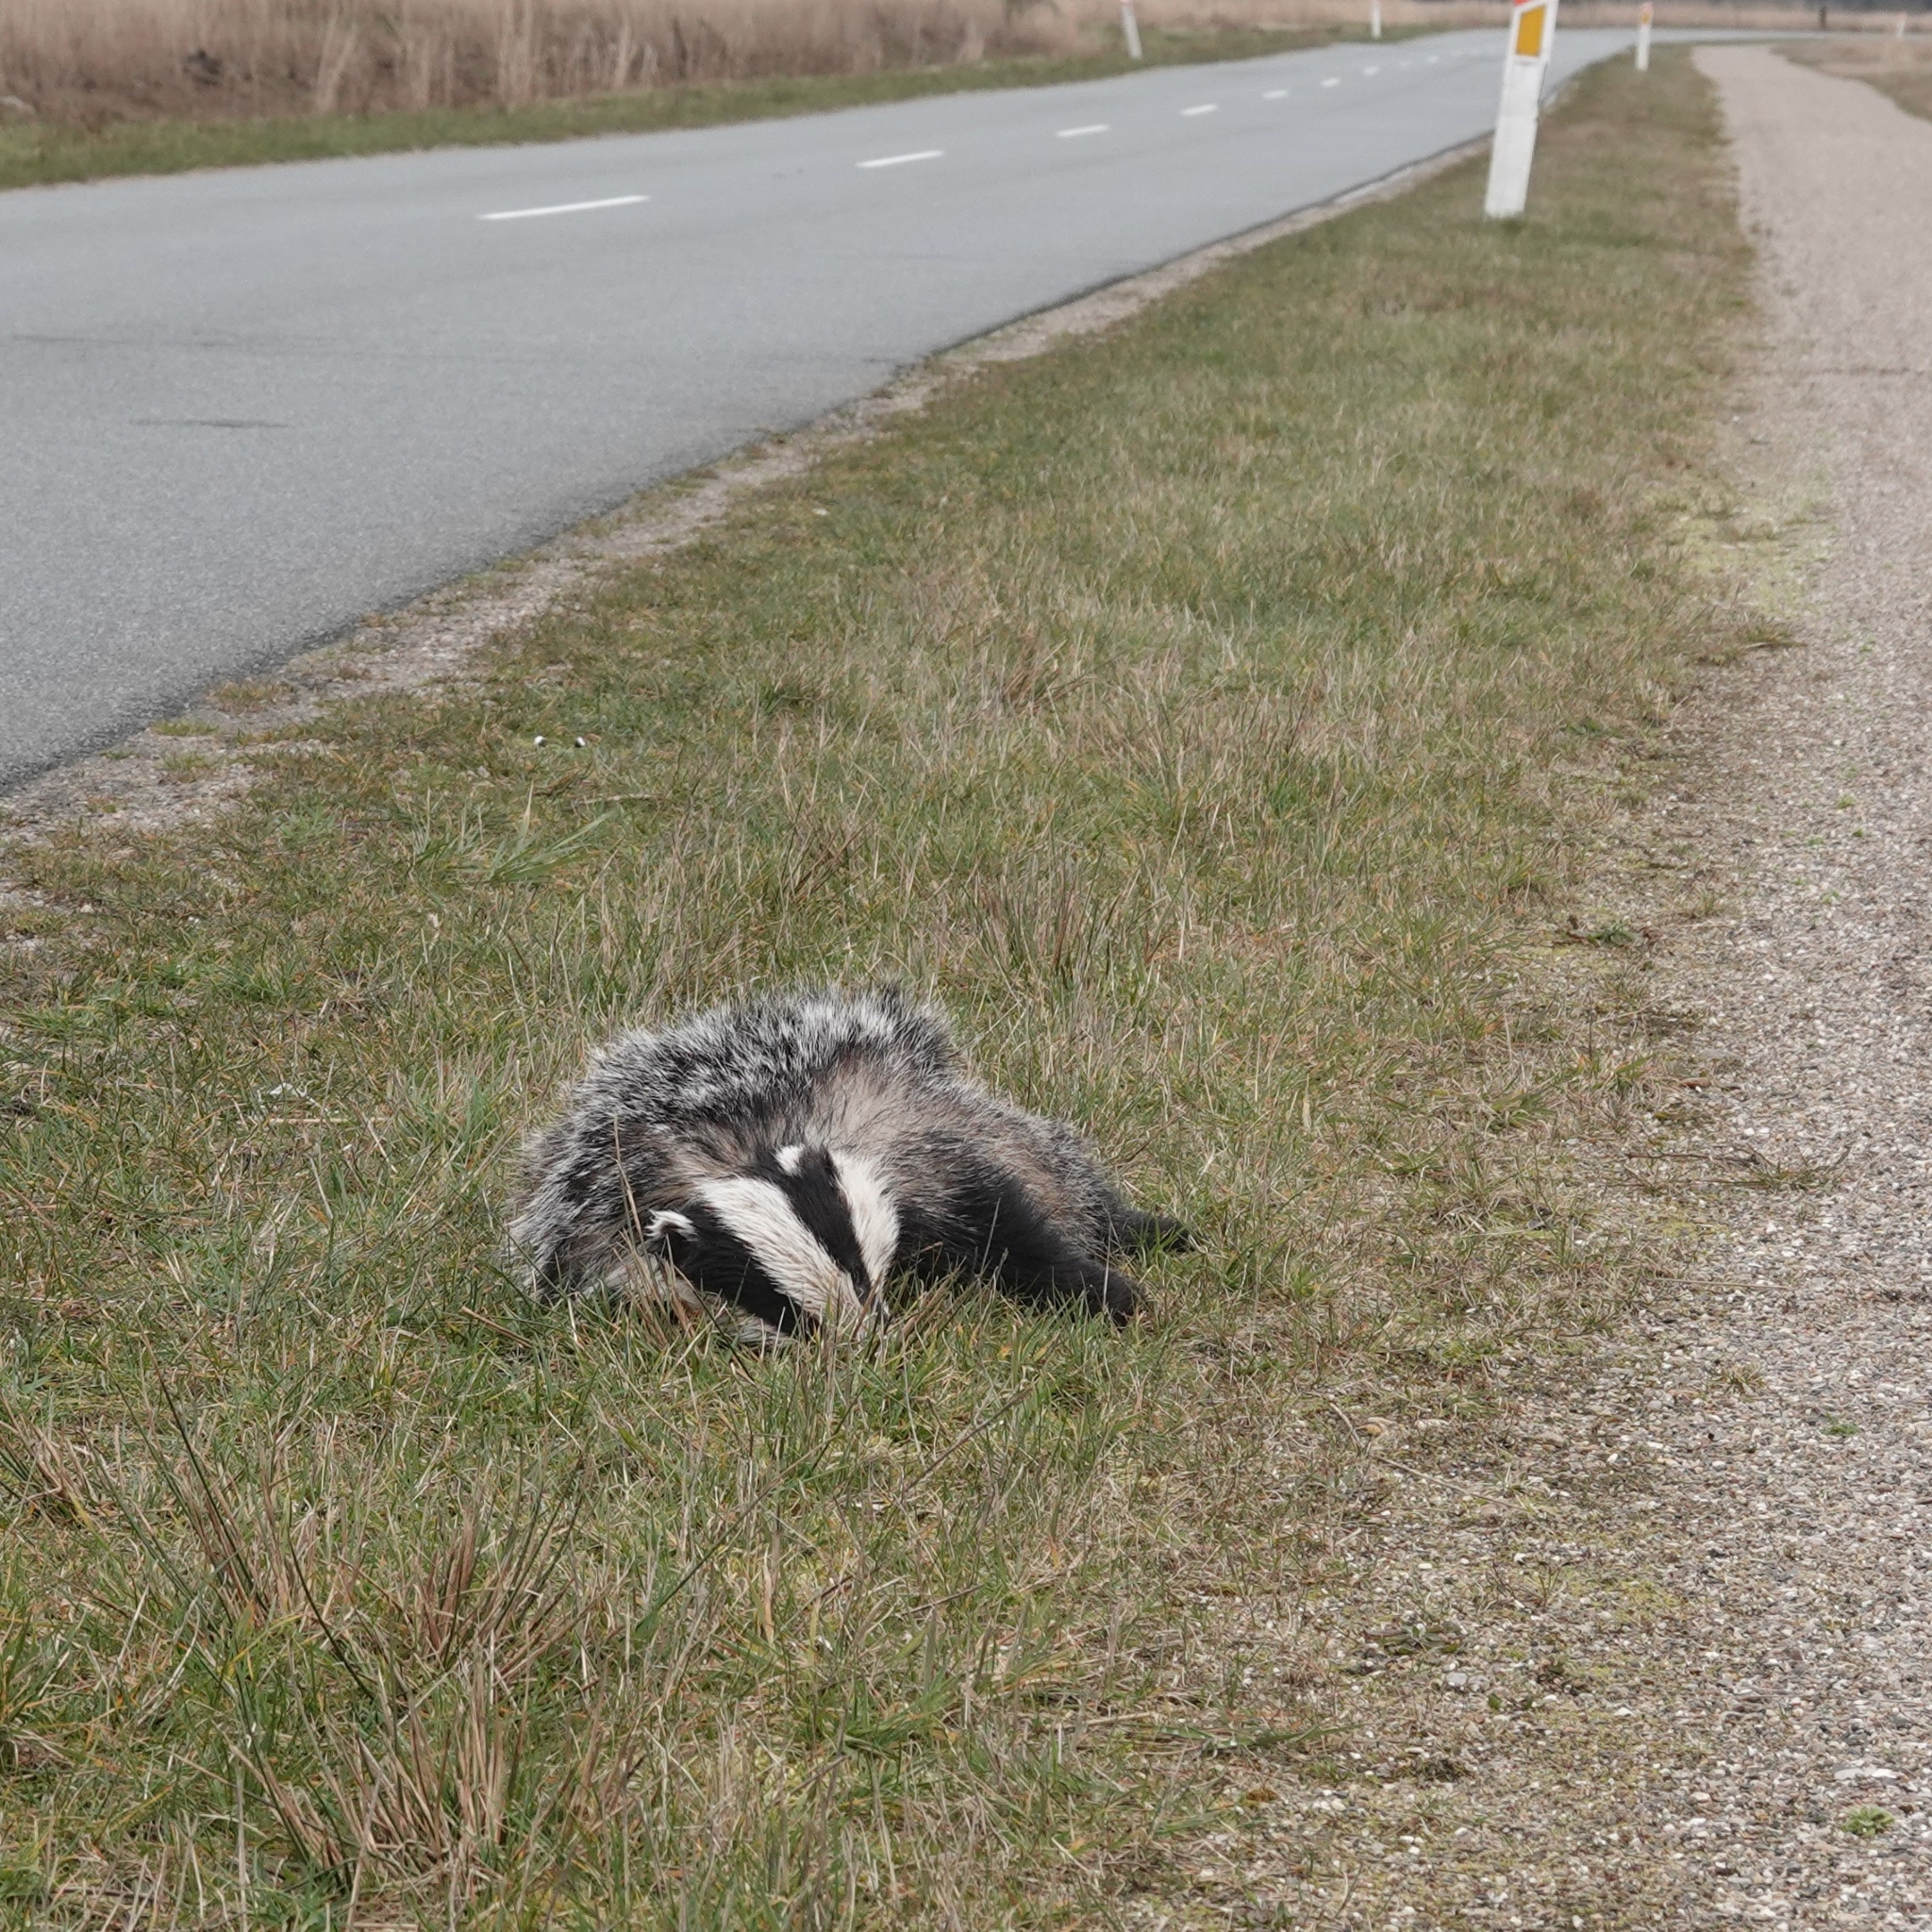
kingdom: Animalia
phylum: Chordata
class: Mammalia
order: Carnivora
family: Mustelidae
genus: Meles
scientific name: Meles meles
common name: Eurasian badger
